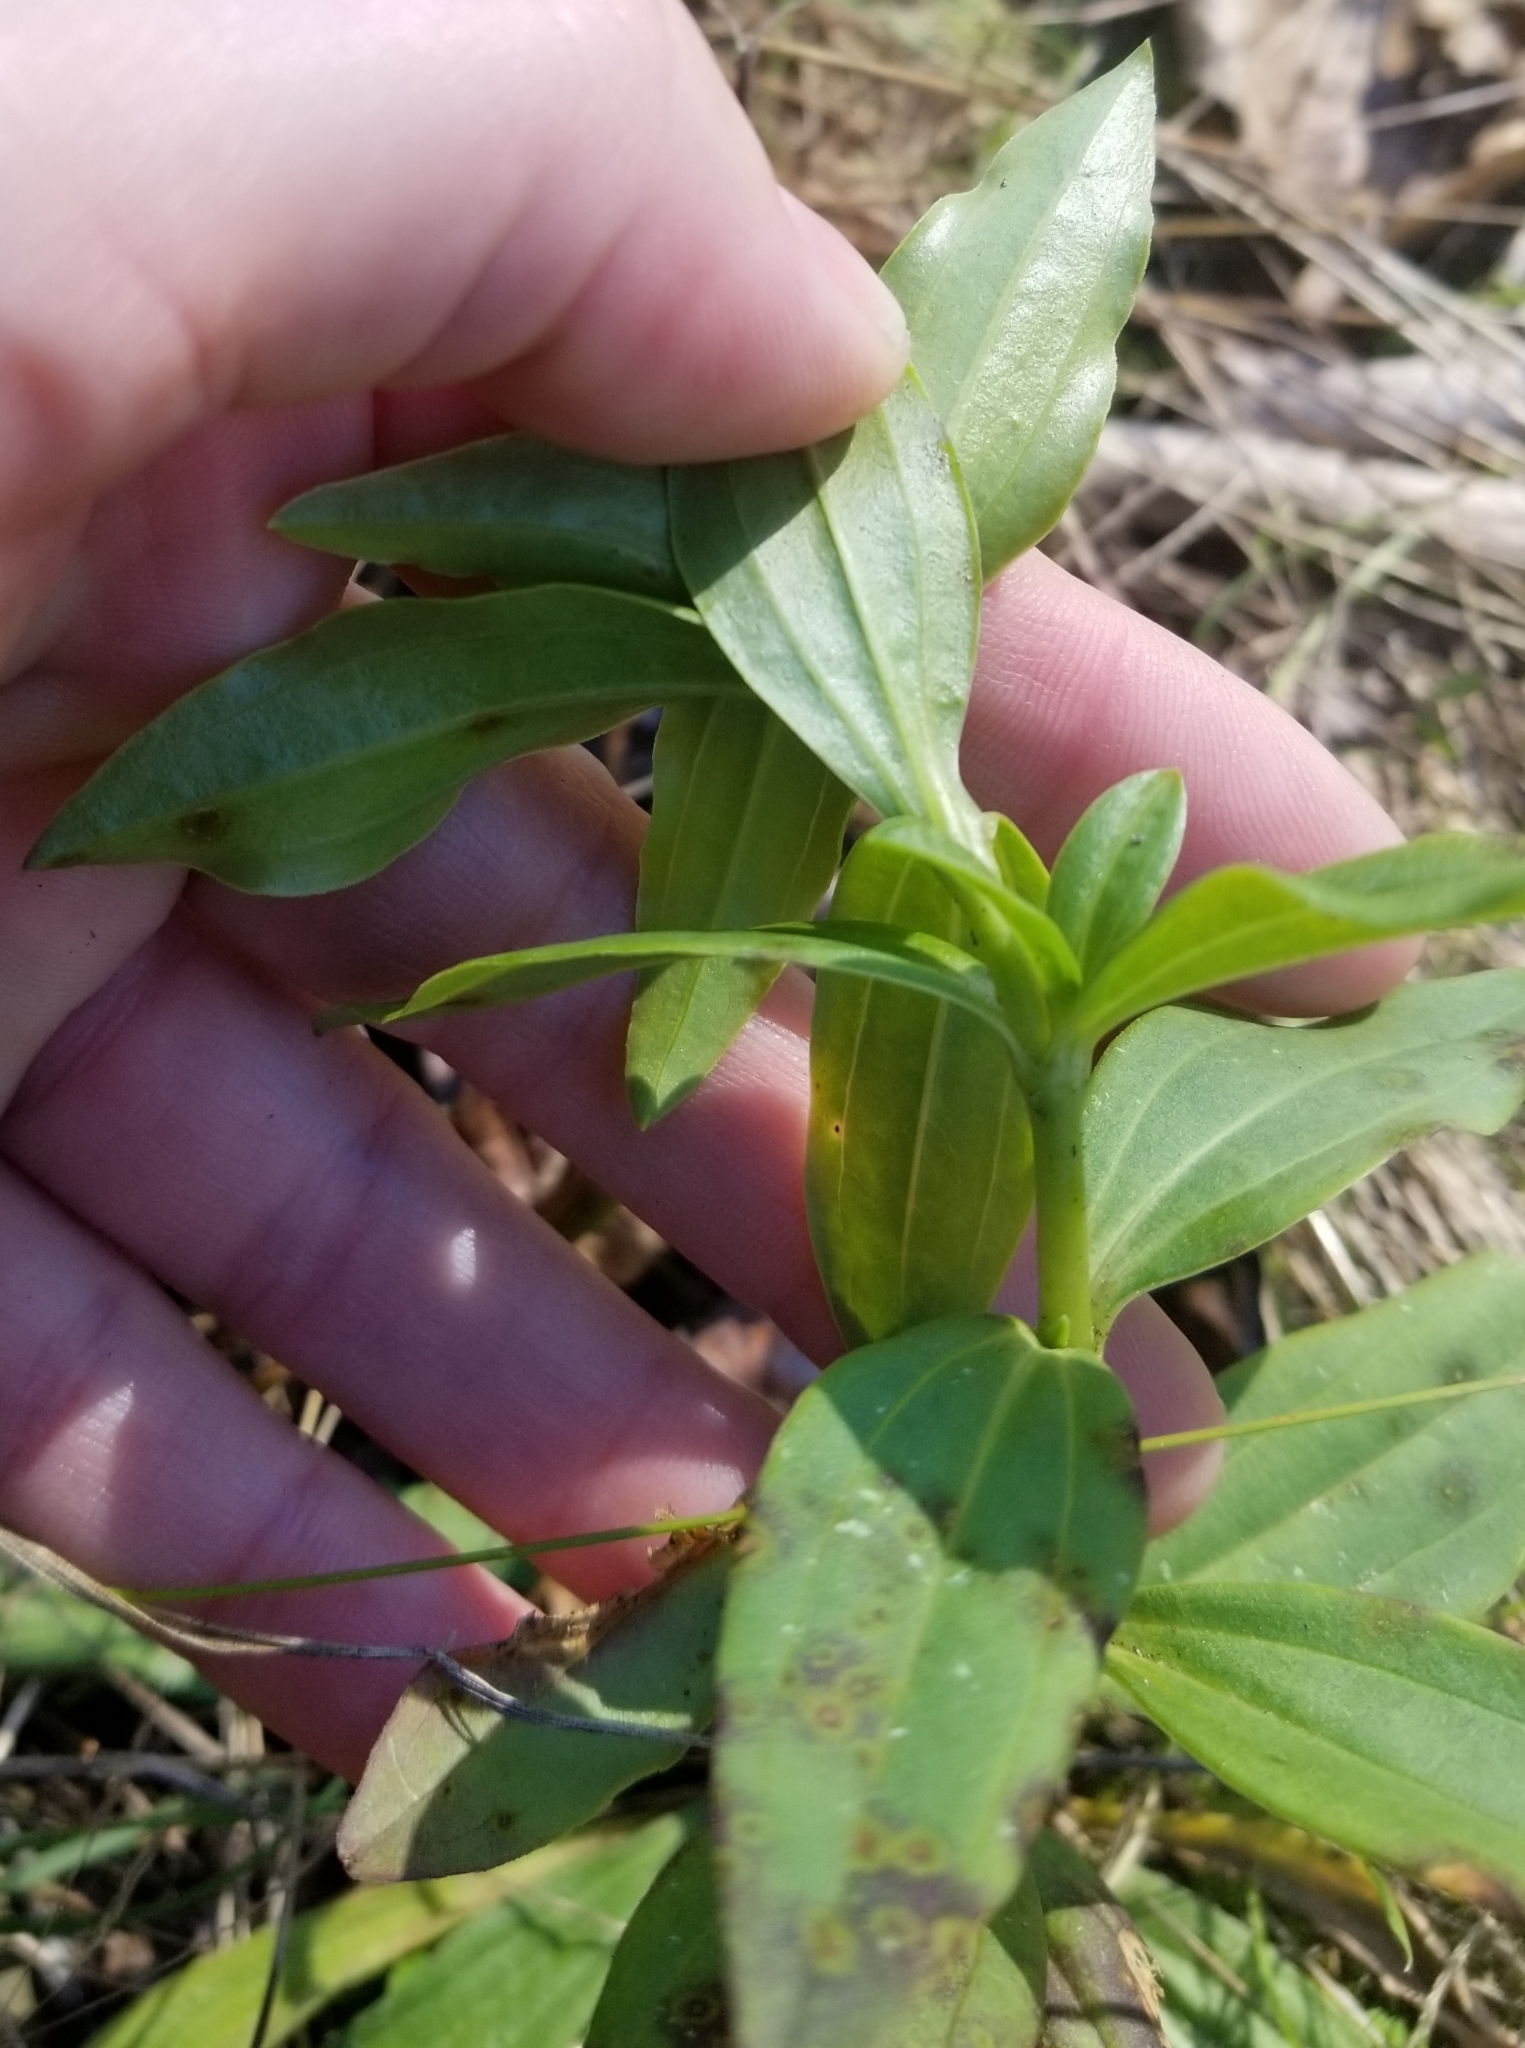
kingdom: Plantae
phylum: Tracheophyta
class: Magnoliopsida
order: Caryophyllales
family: Caryophyllaceae
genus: Saponaria
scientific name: Saponaria officinalis
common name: Soapwort
